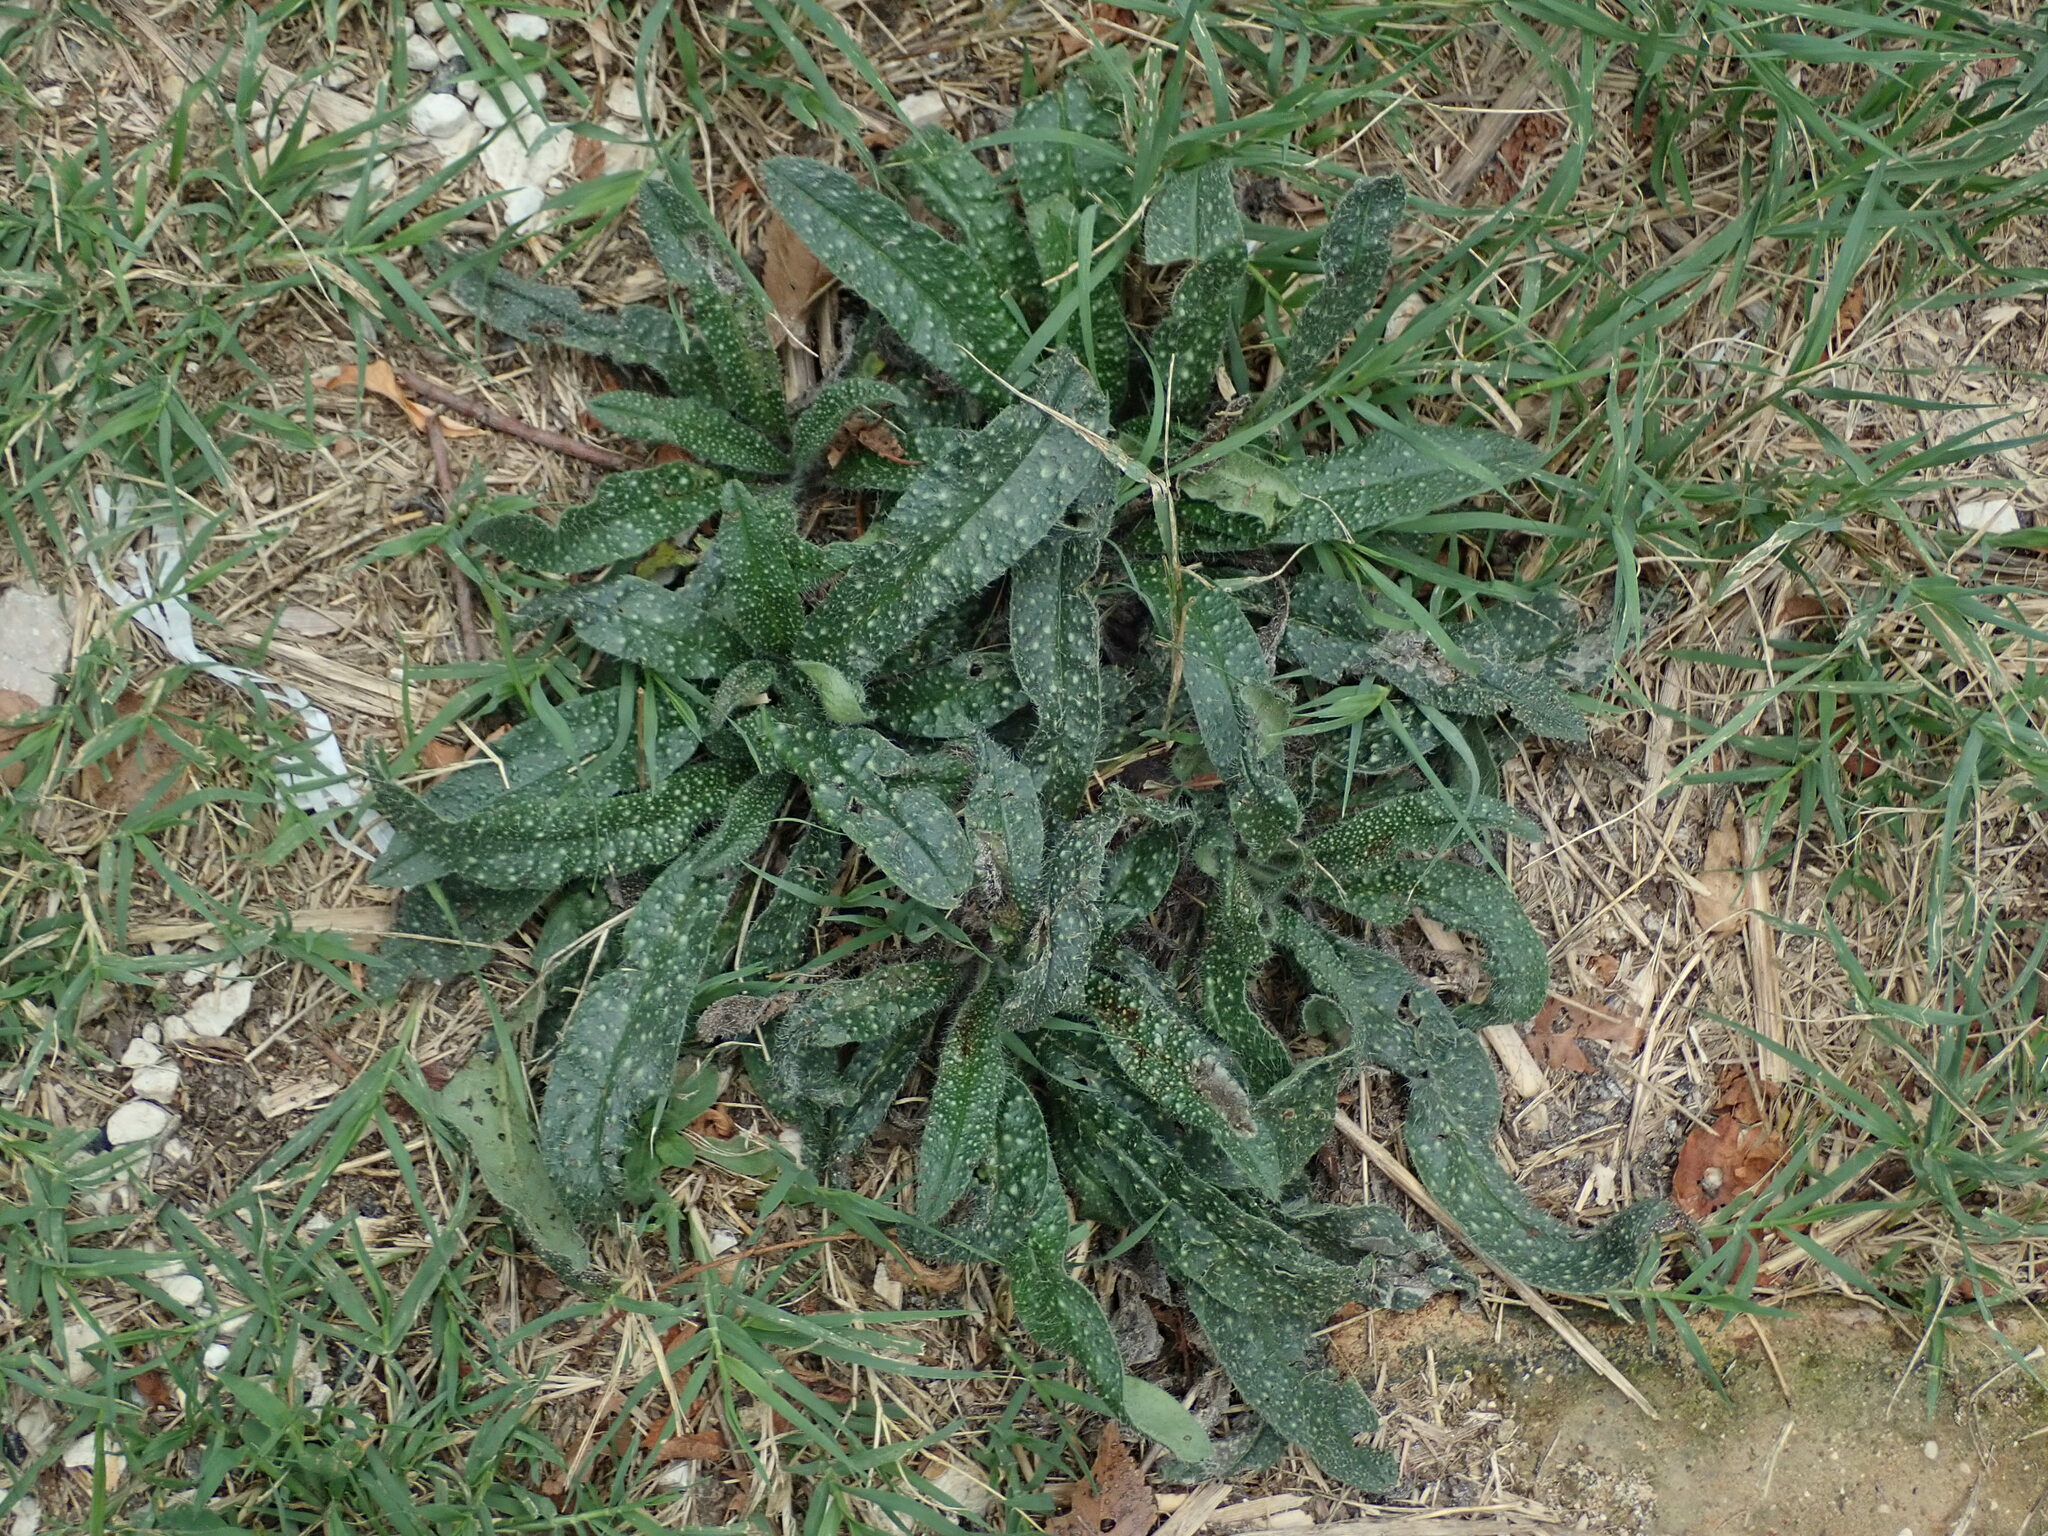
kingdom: Plantae
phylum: Tracheophyta
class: Magnoliopsida
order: Boraginales
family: Boraginaceae
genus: Echium
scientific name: Echium vulgare
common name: Common viper's bugloss
